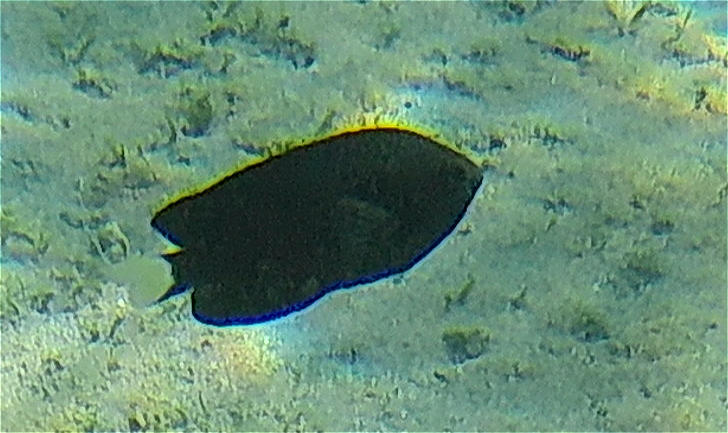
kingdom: Animalia
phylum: Chordata
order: Perciformes
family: Pomacentridae
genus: Pomacentrus
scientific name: Pomacentrus trichrourus
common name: Paletail damsel
